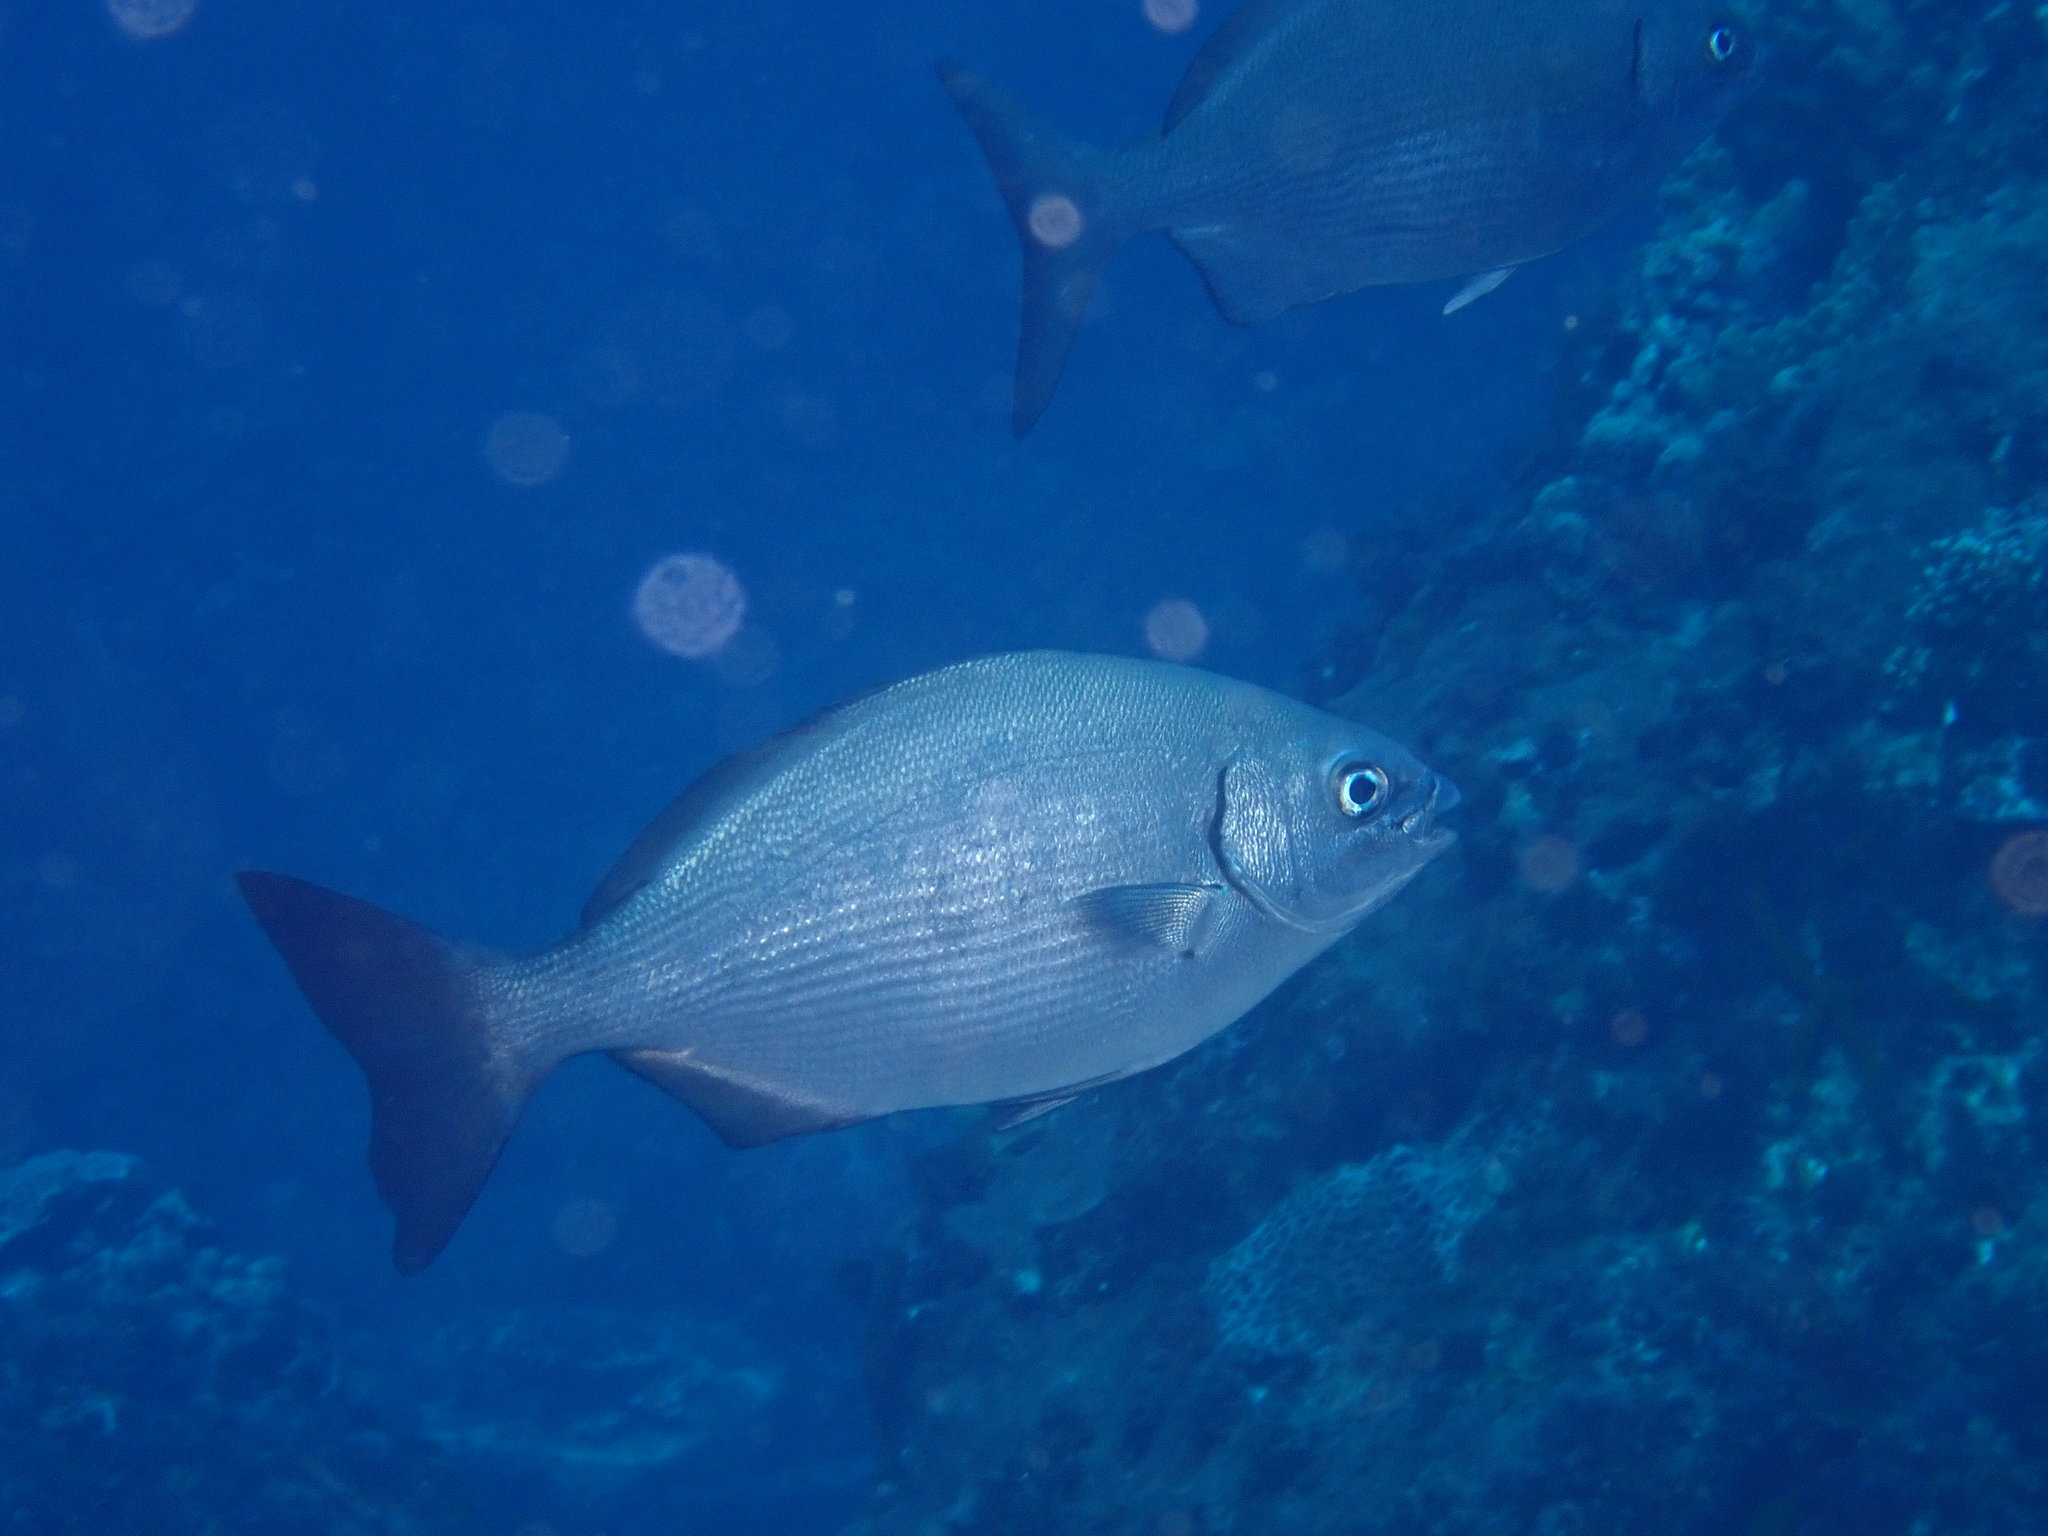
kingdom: Animalia
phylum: Chordata
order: Perciformes
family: Kyphosidae
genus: Kyphosus
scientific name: Kyphosus bigibbus
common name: Brown chub
